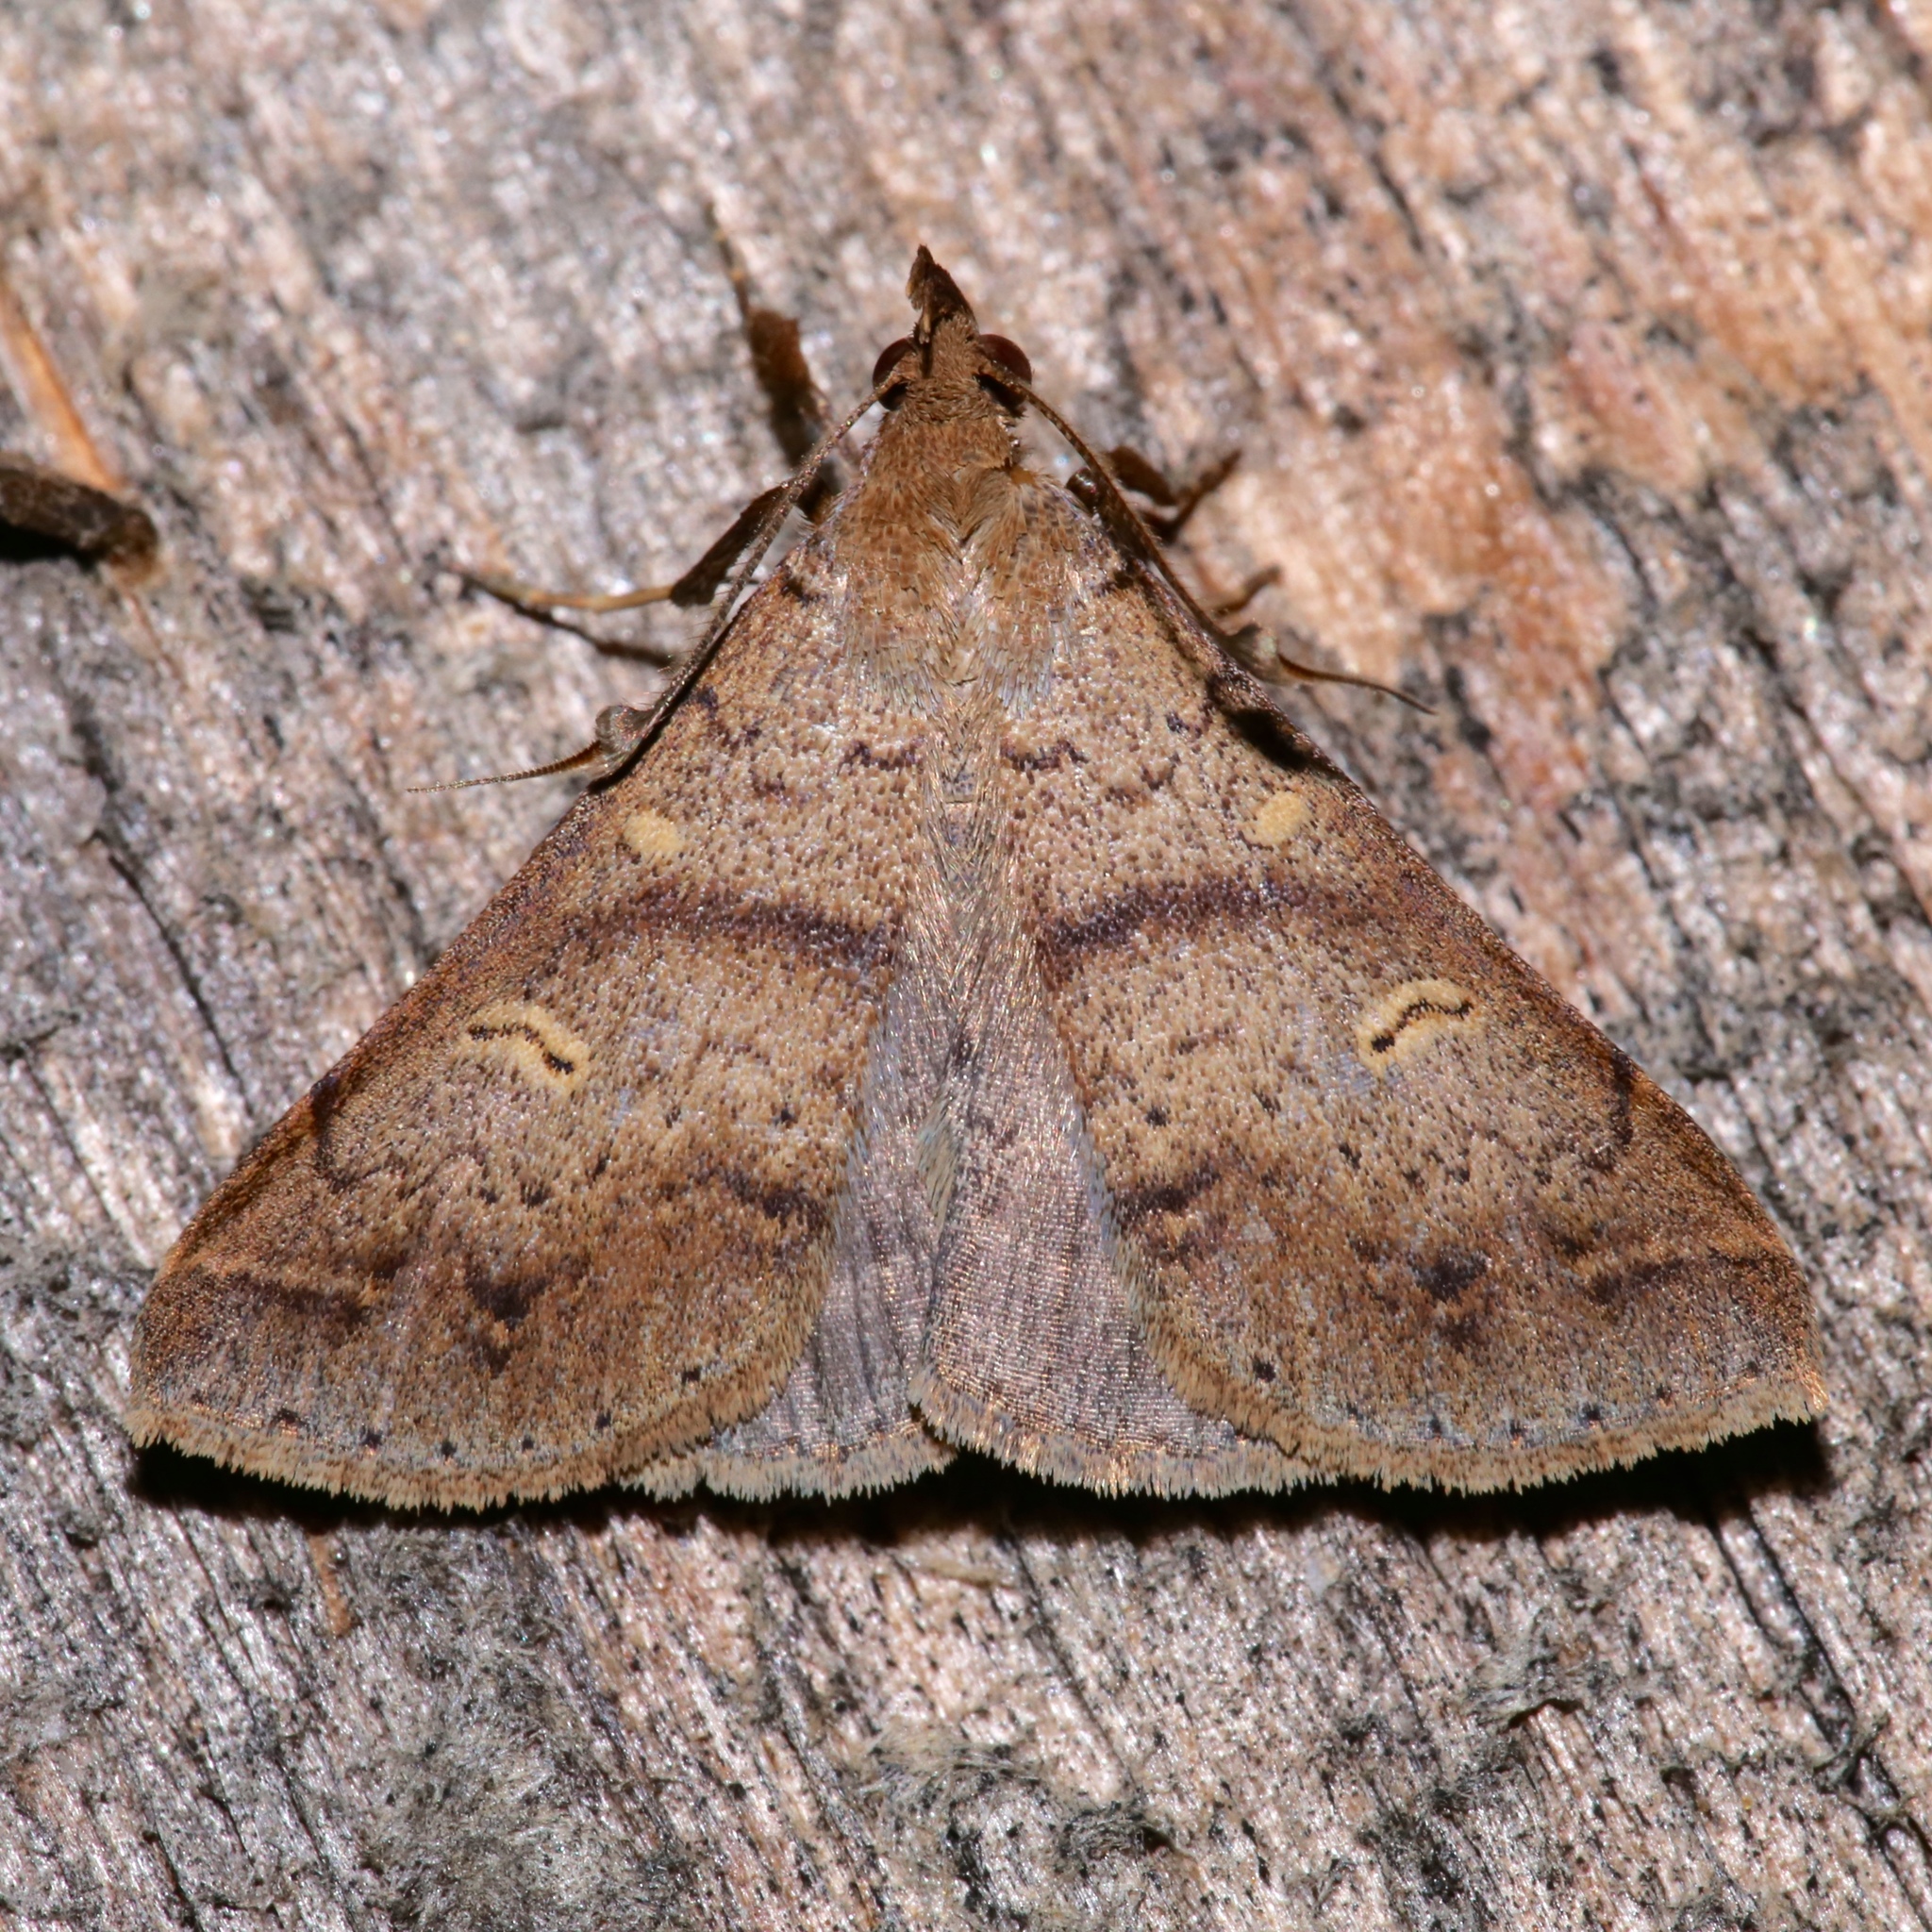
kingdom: Animalia
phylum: Arthropoda
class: Insecta
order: Lepidoptera
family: Erebidae
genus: Renia
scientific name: Renia discoloralis
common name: Discolored renia moth
